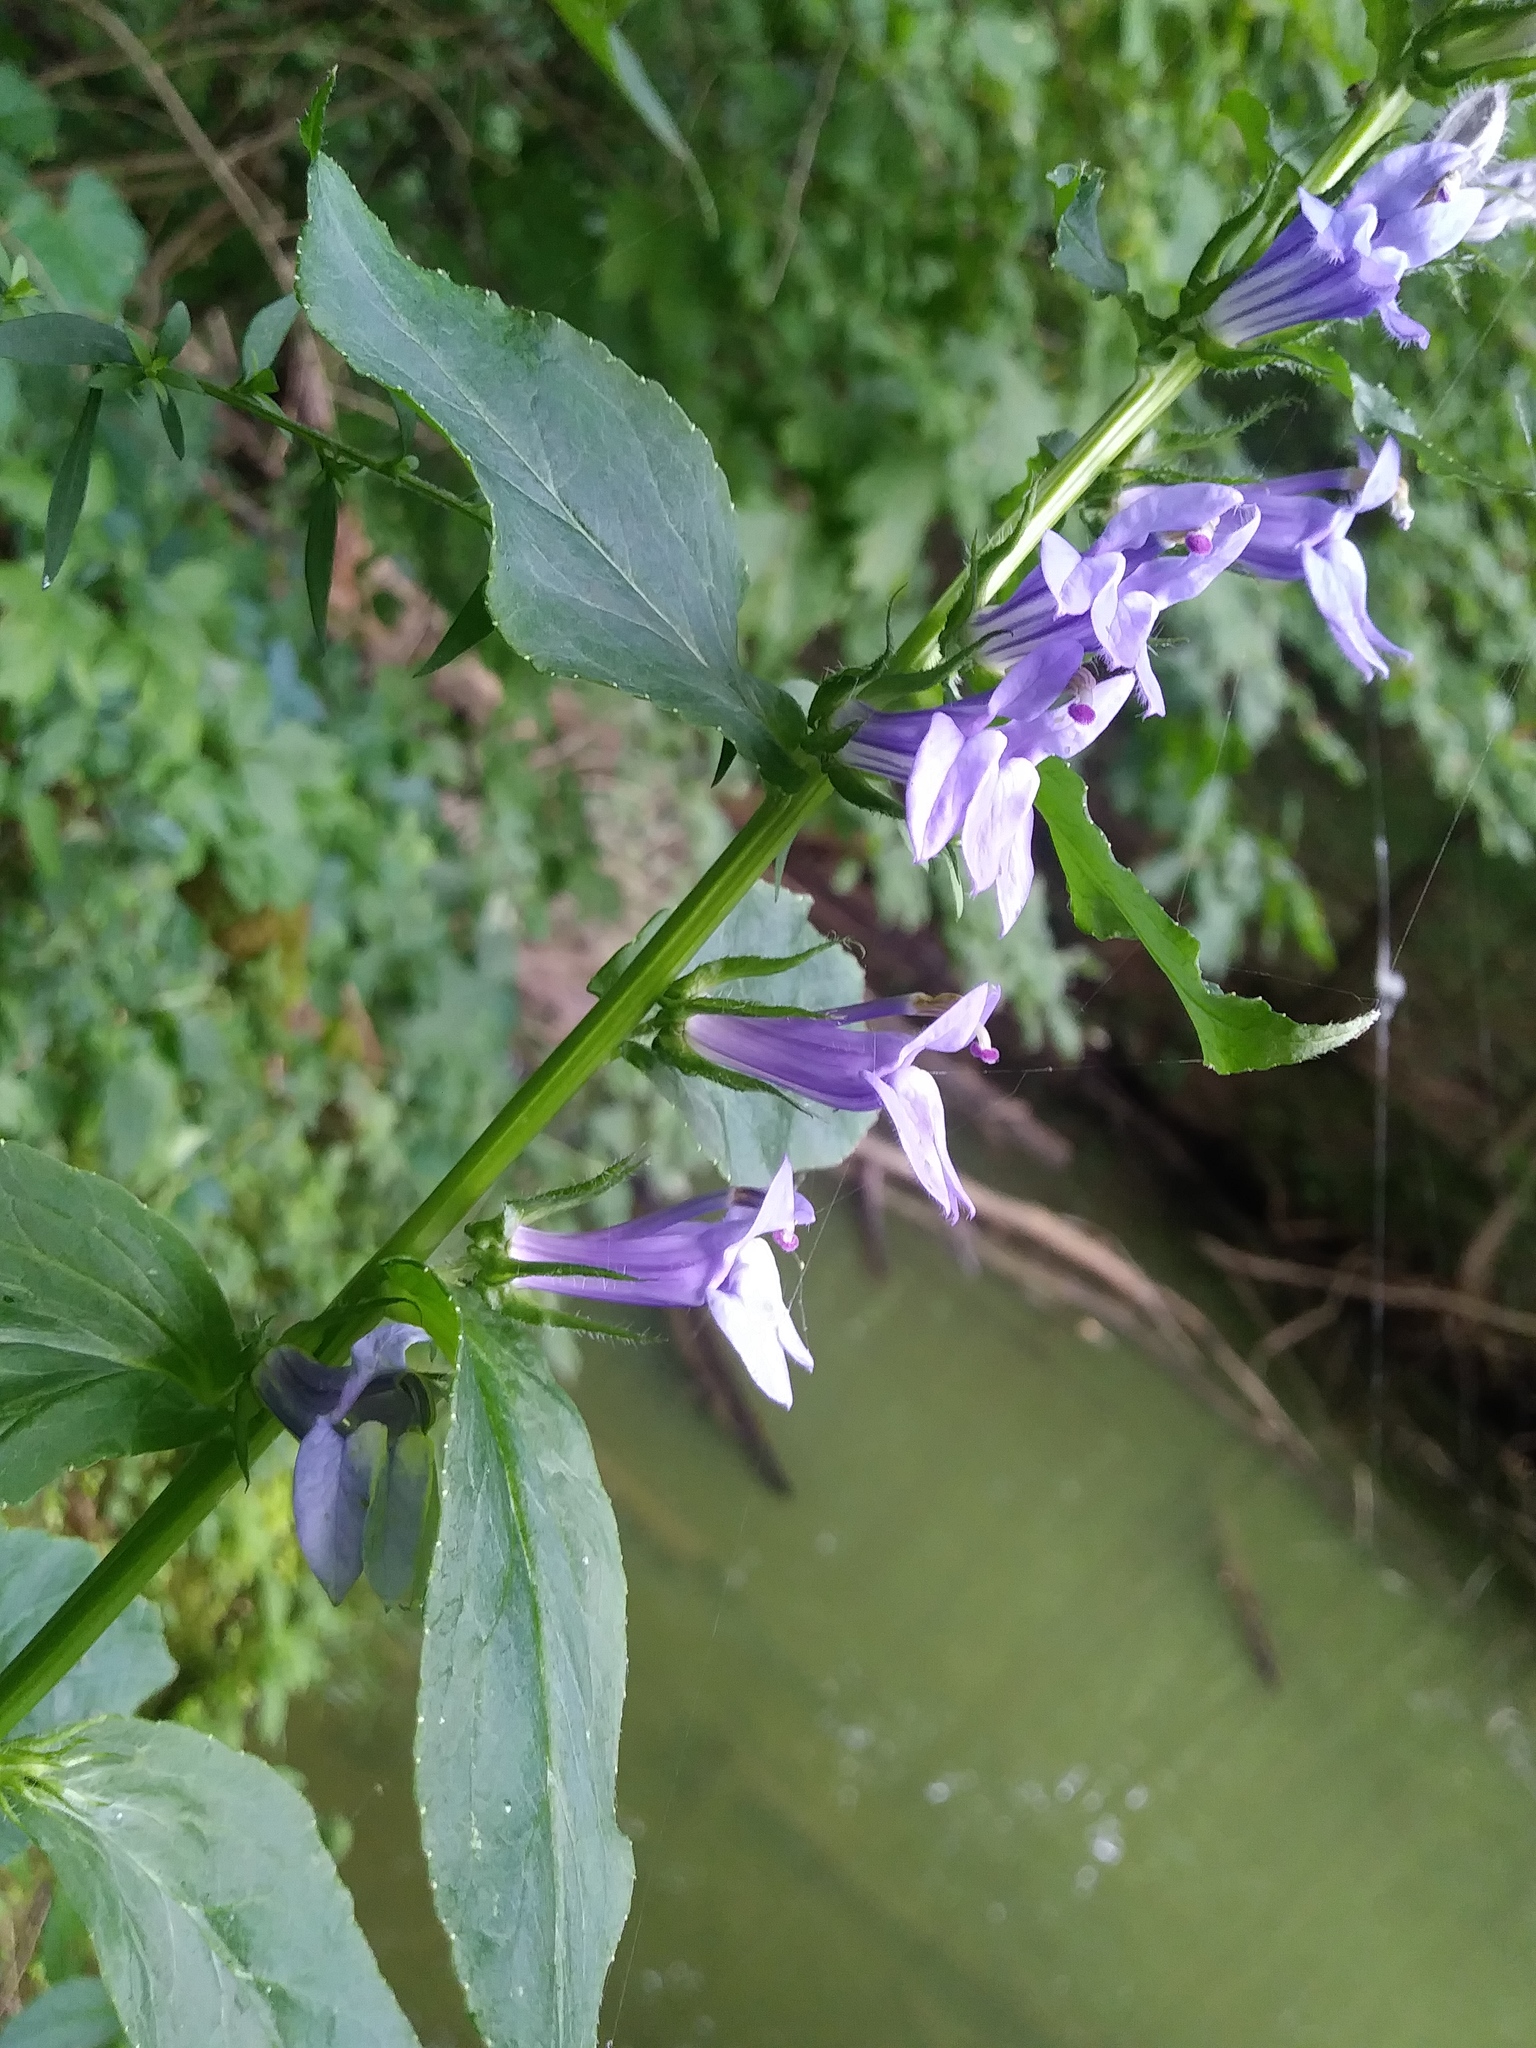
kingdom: Plantae
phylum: Tracheophyta
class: Magnoliopsida
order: Asterales
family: Campanulaceae
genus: Lobelia
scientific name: Lobelia siphilitica
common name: Great lobelia
